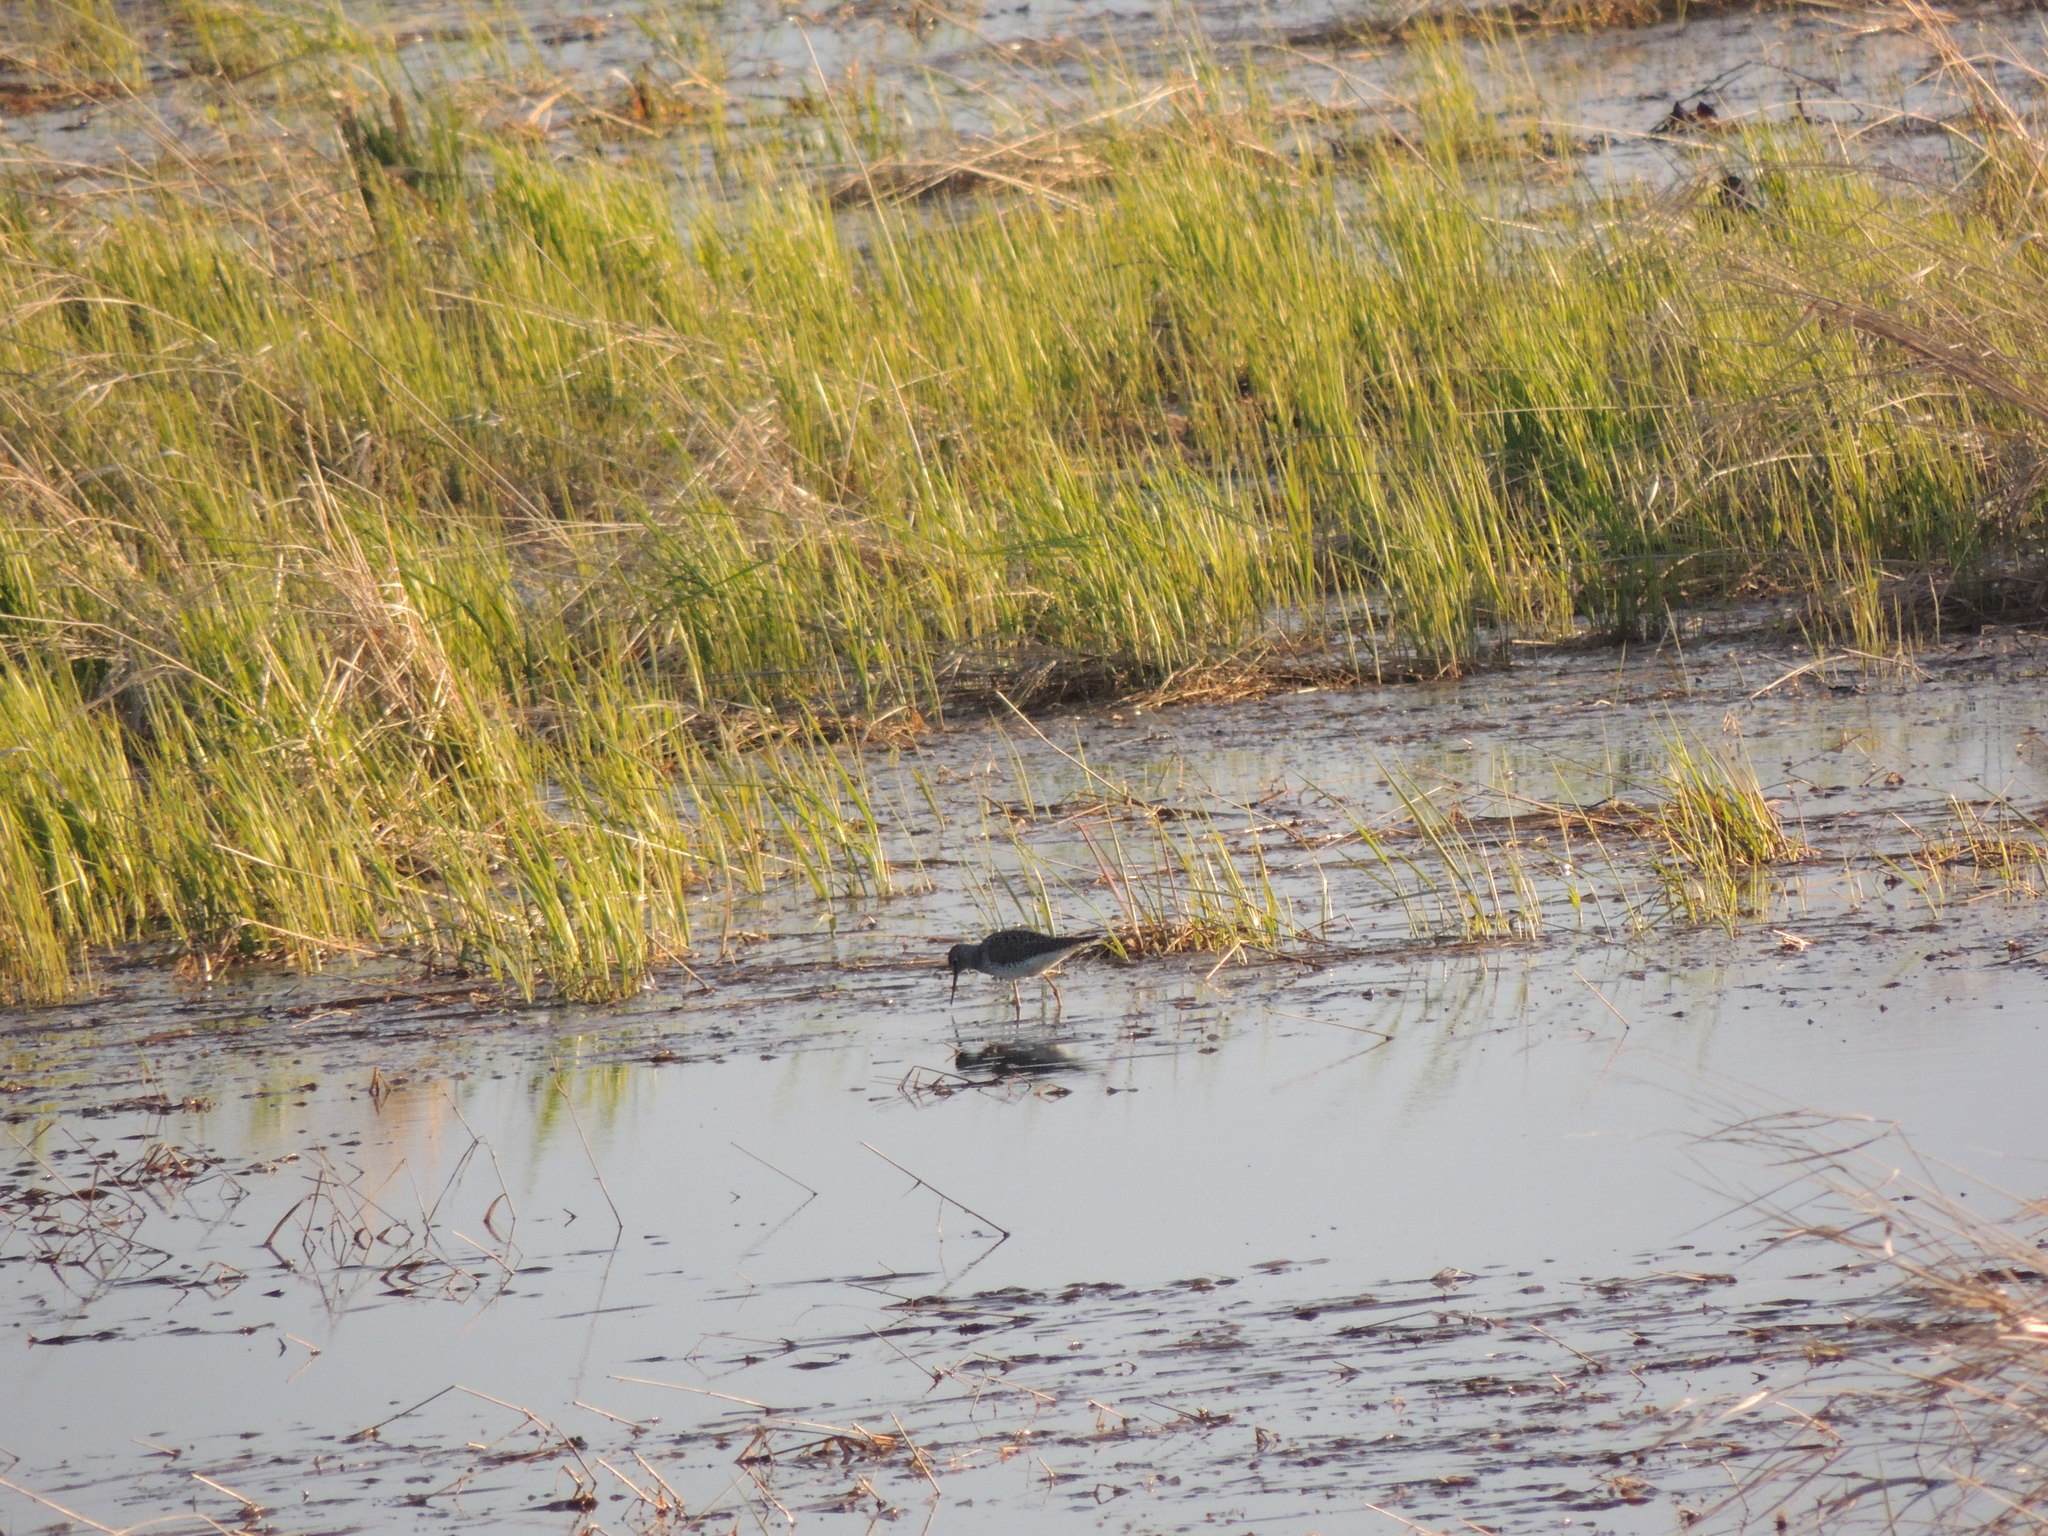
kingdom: Animalia
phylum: Chordata
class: Aves
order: Charadriiformes
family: Scolopacidae
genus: Tringa
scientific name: Tringa melanoleuca
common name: Greater yellowlegs
